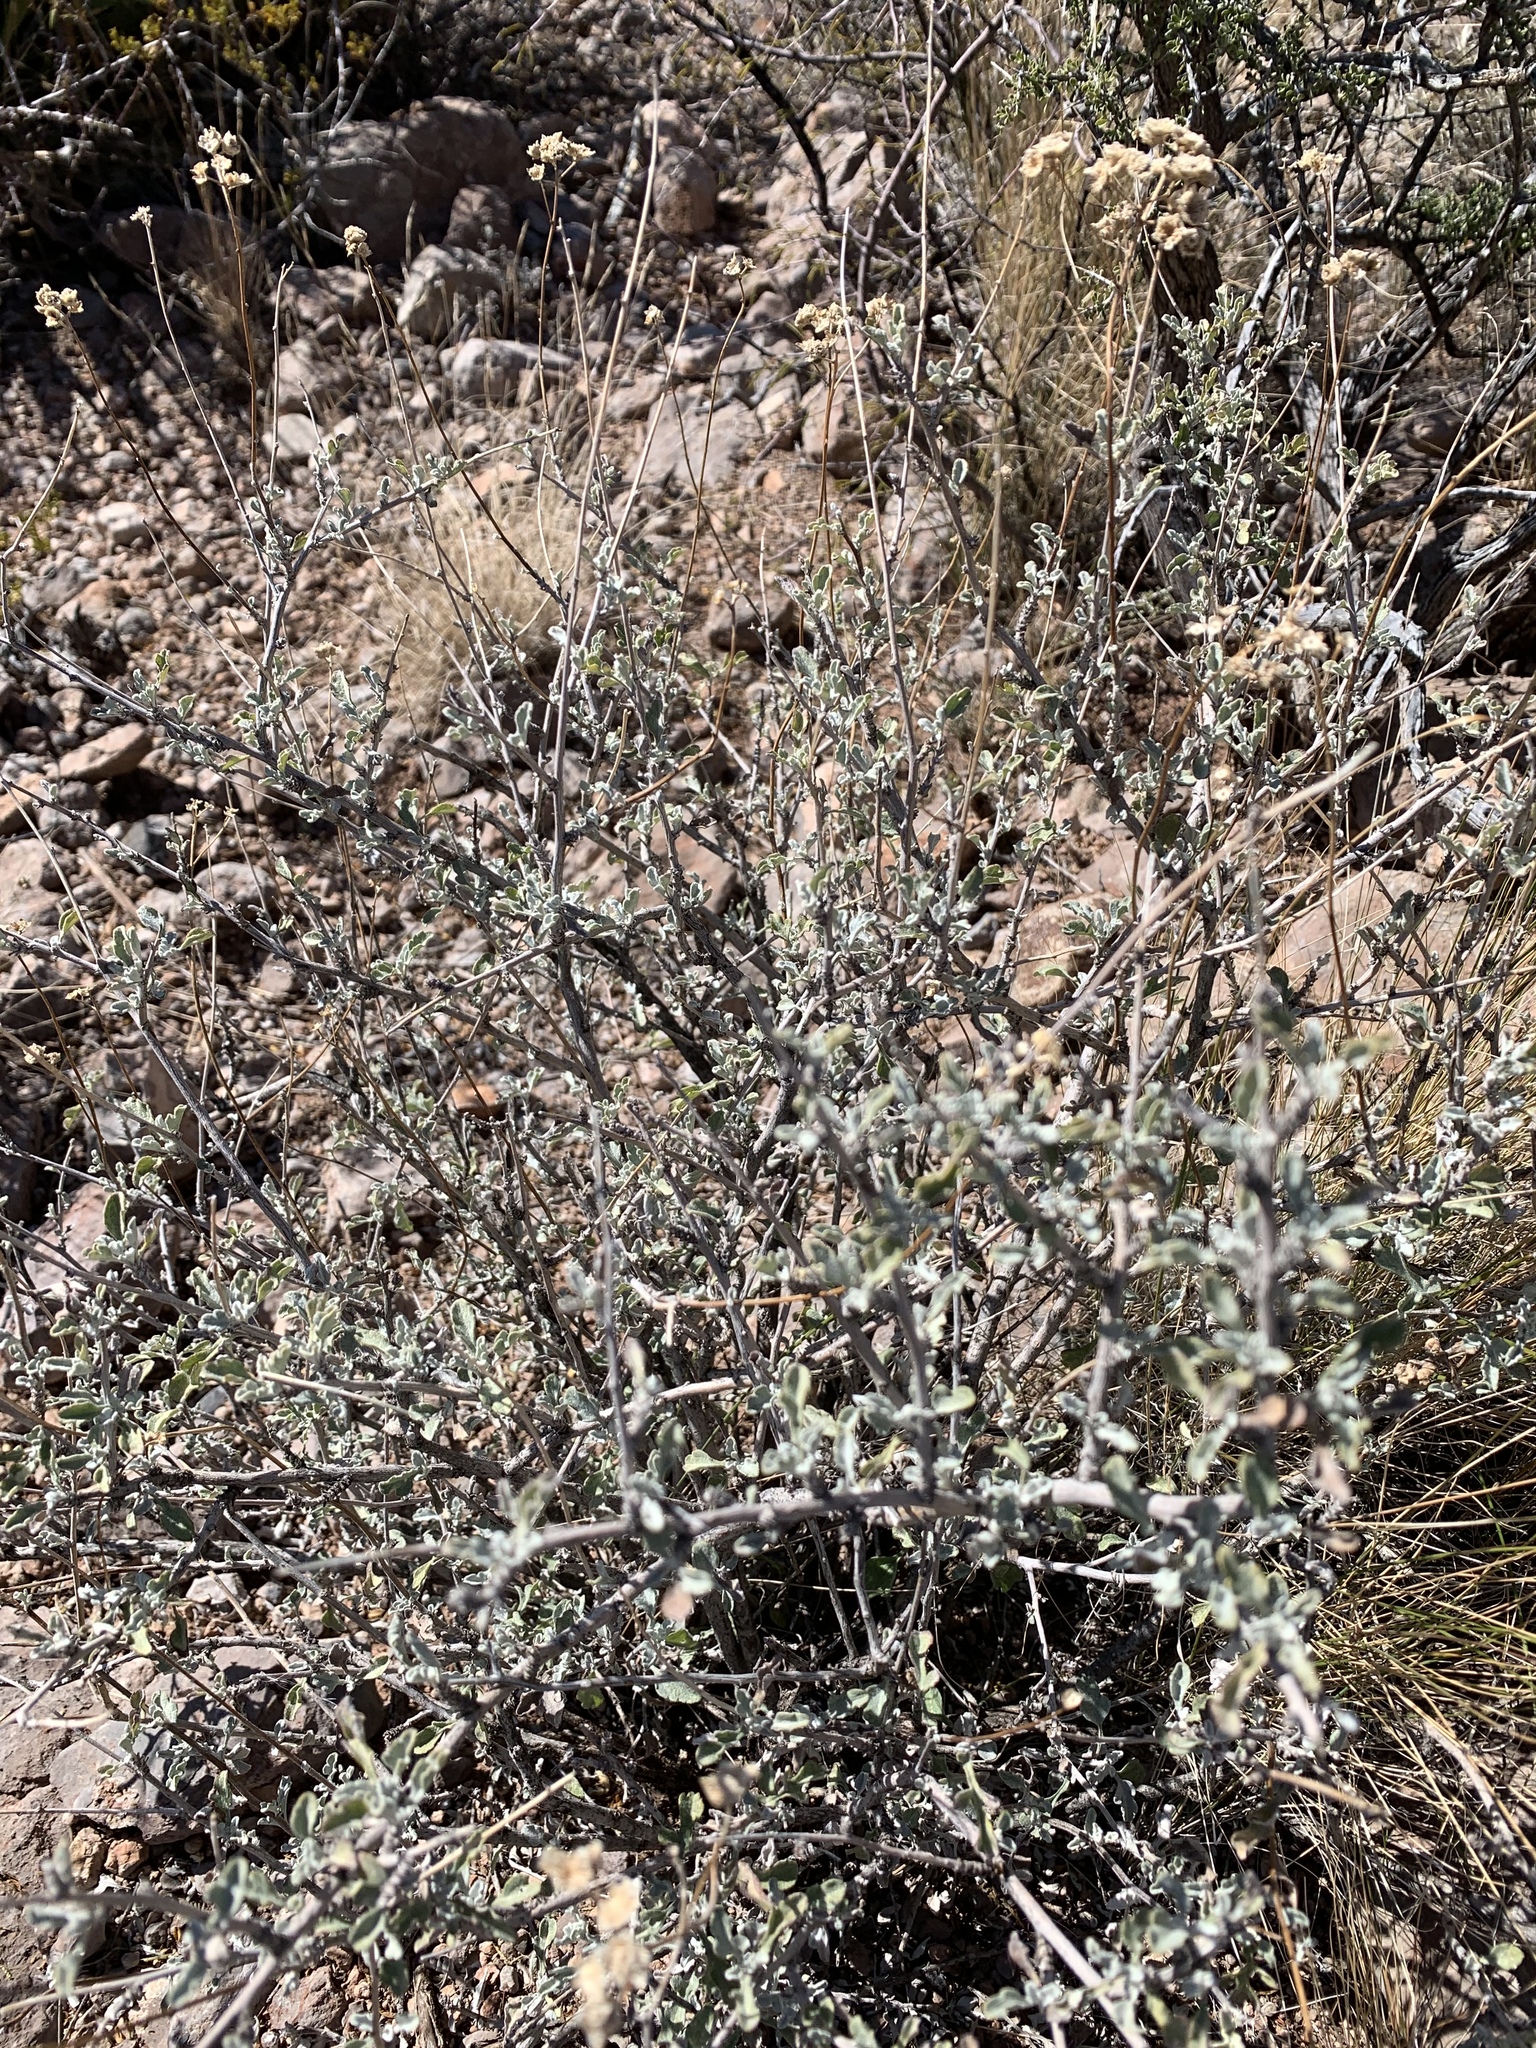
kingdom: Plantae
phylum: Tracheophyta
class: Magnoliopsida
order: Asterales
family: Asteraceae
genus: Parthenium
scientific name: Parthenium incanum
